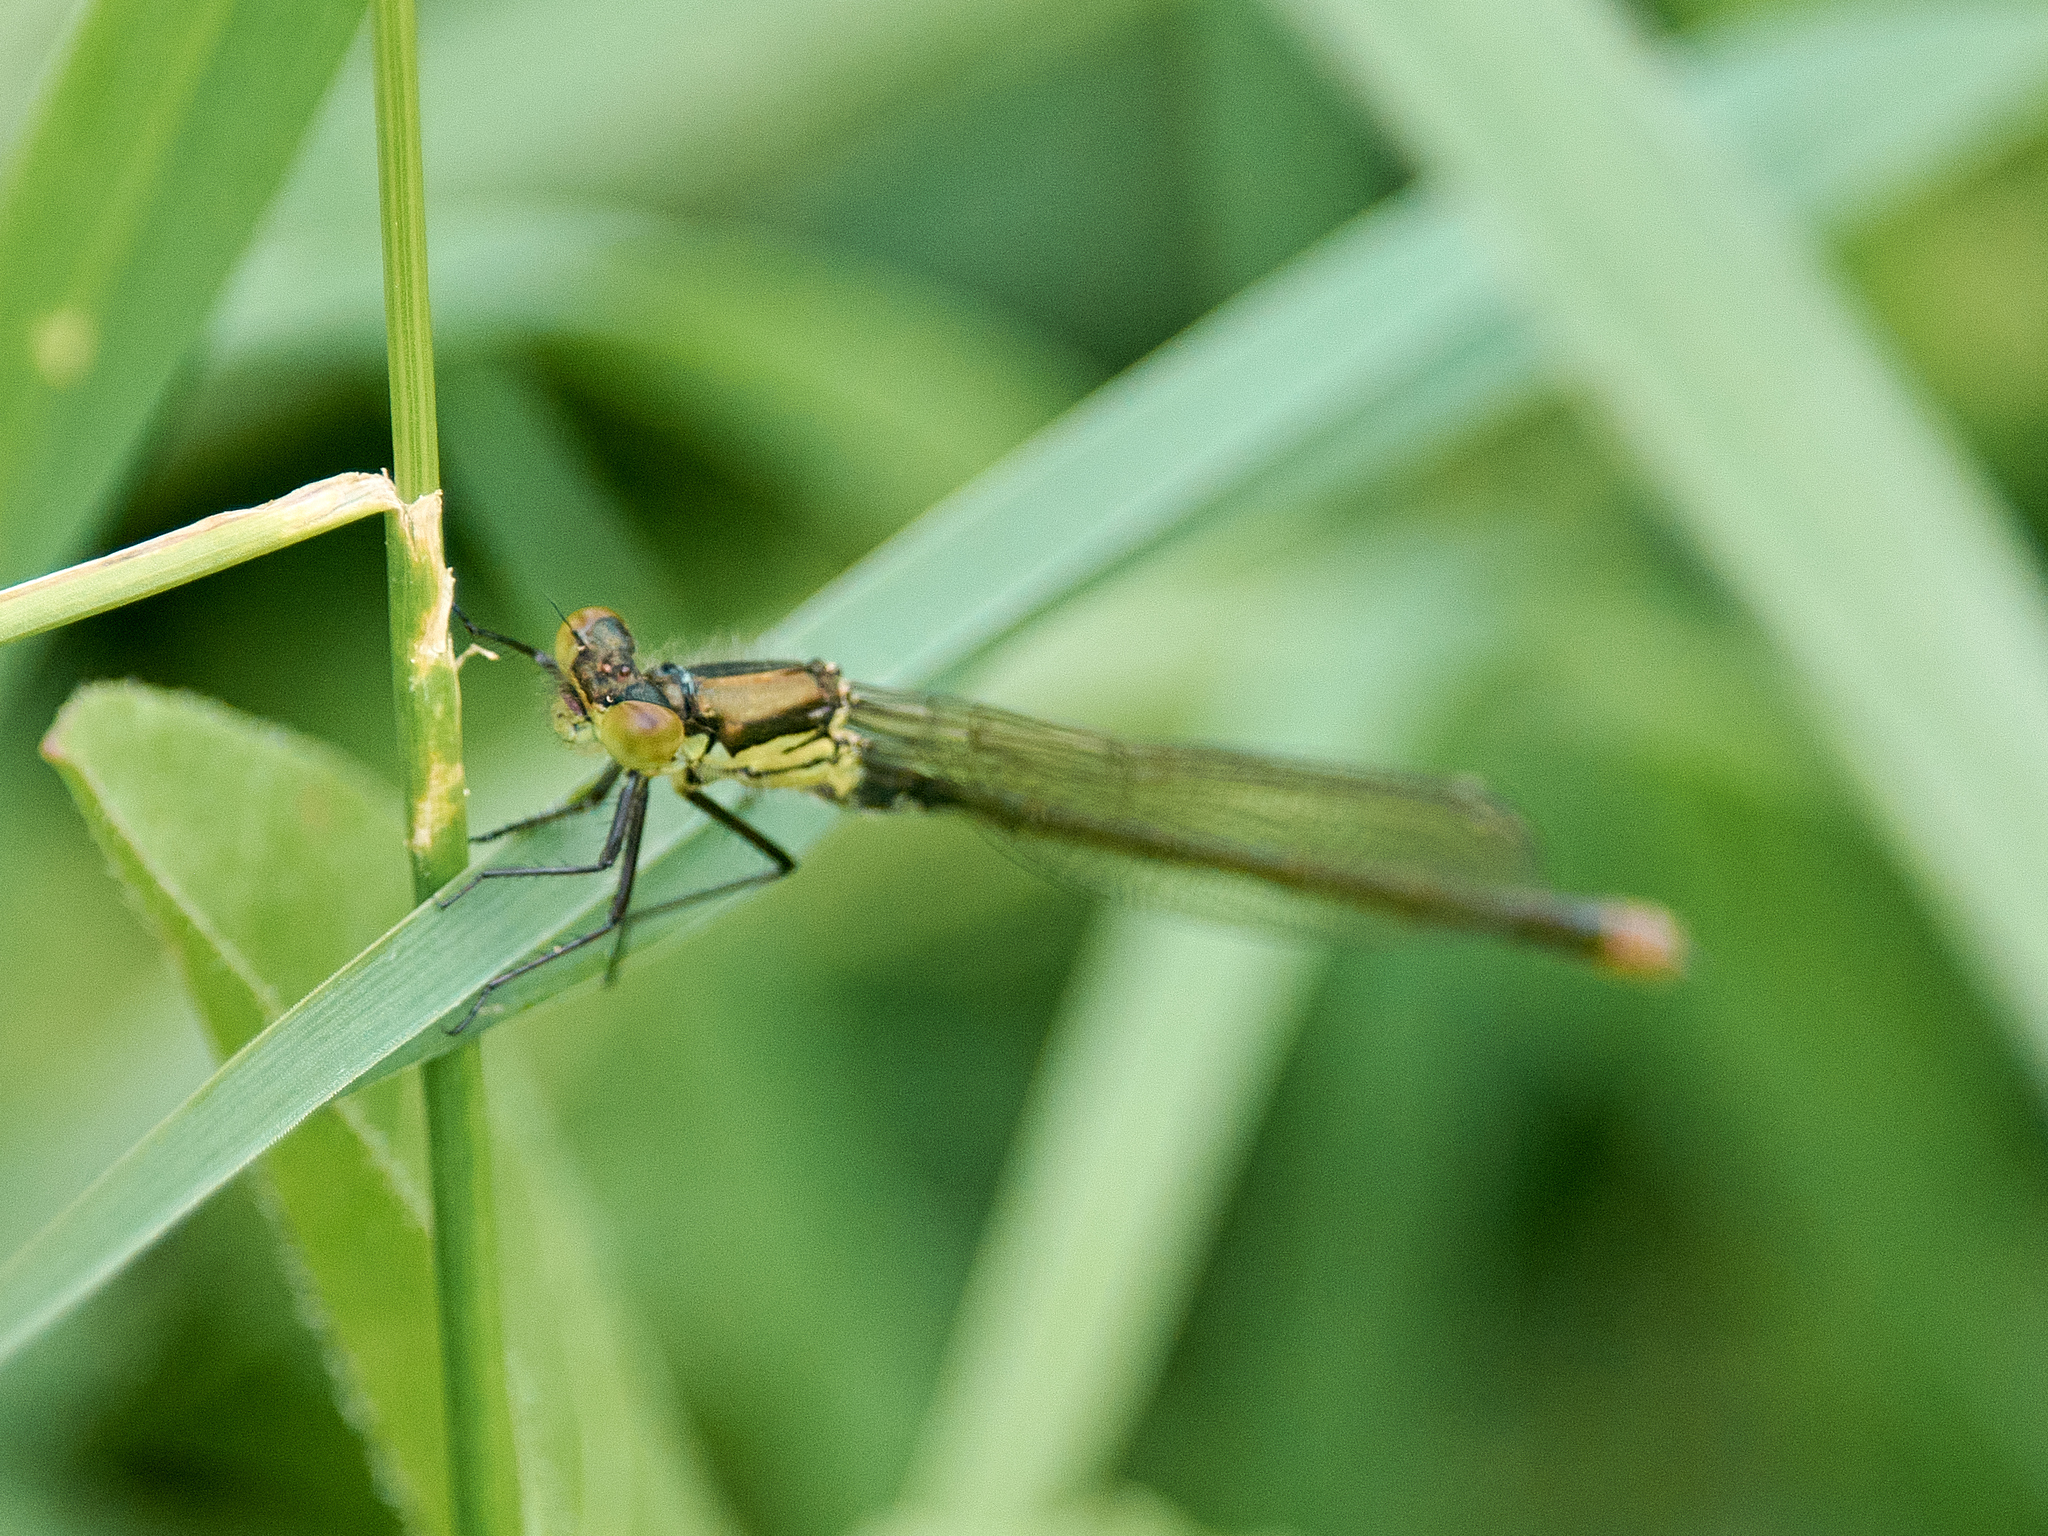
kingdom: Animalia
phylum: Arthropoda
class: Insecta
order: Odonata
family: Coenagrionidae
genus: Erythromma
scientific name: Erythromma najas
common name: Red-eyed damselfly
